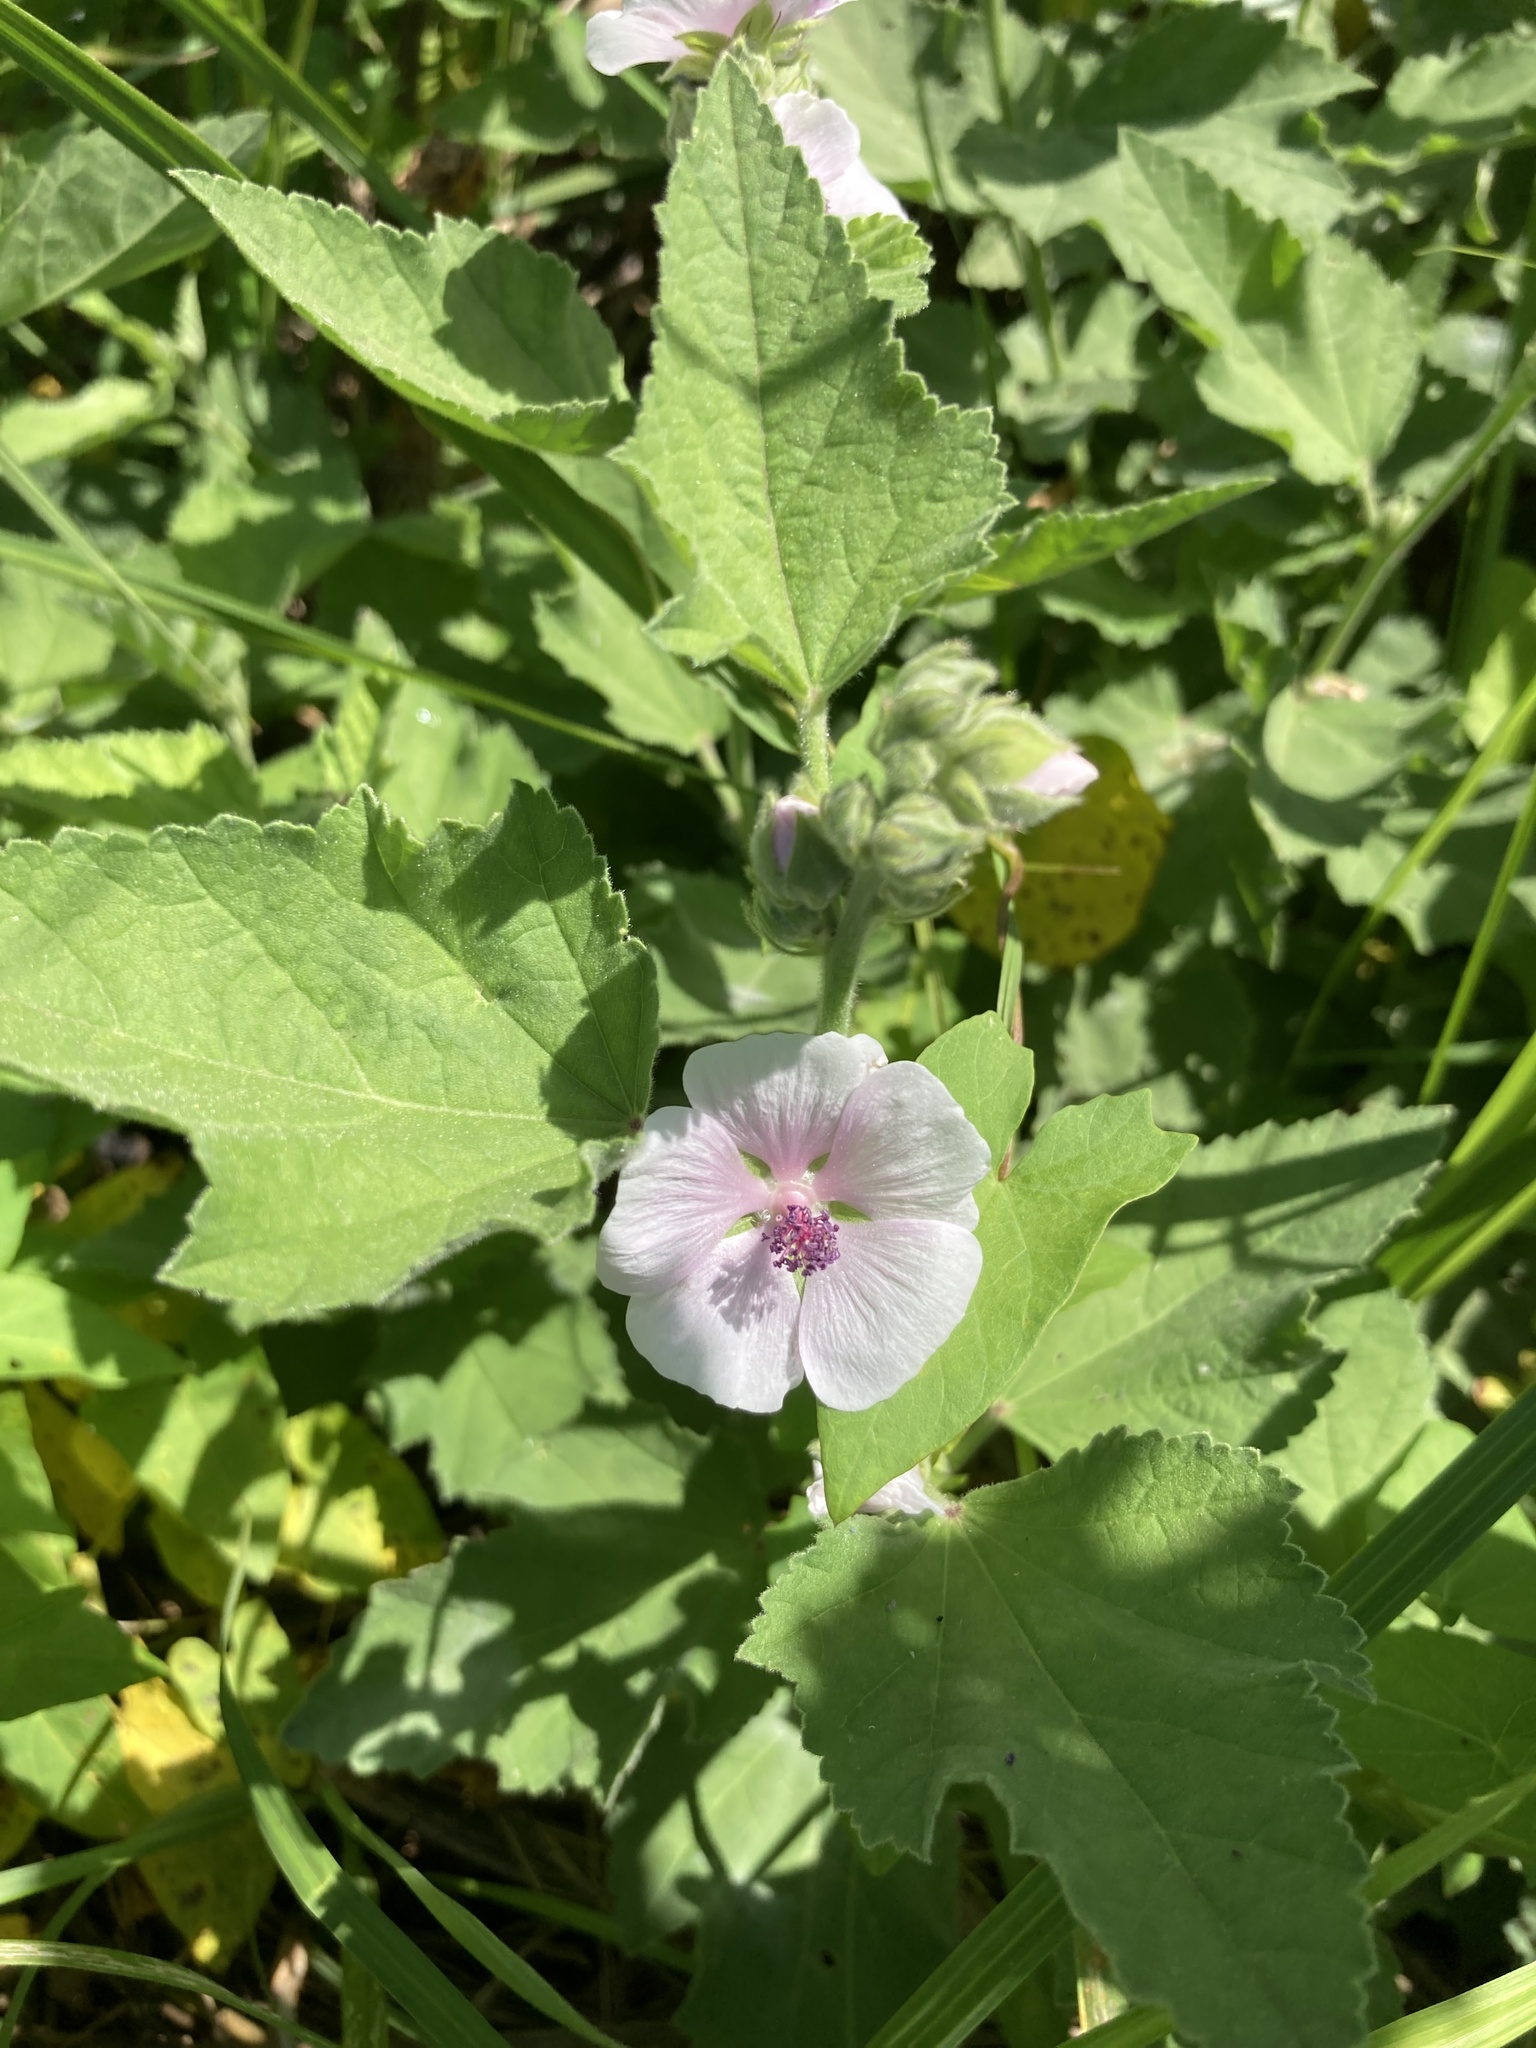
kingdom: Plantae
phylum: Tracheophyta
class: Magnoliopsida
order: Malvales
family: Malvaceae
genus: Althaea
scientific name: Althaea officinalis
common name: Marsh-mallow
